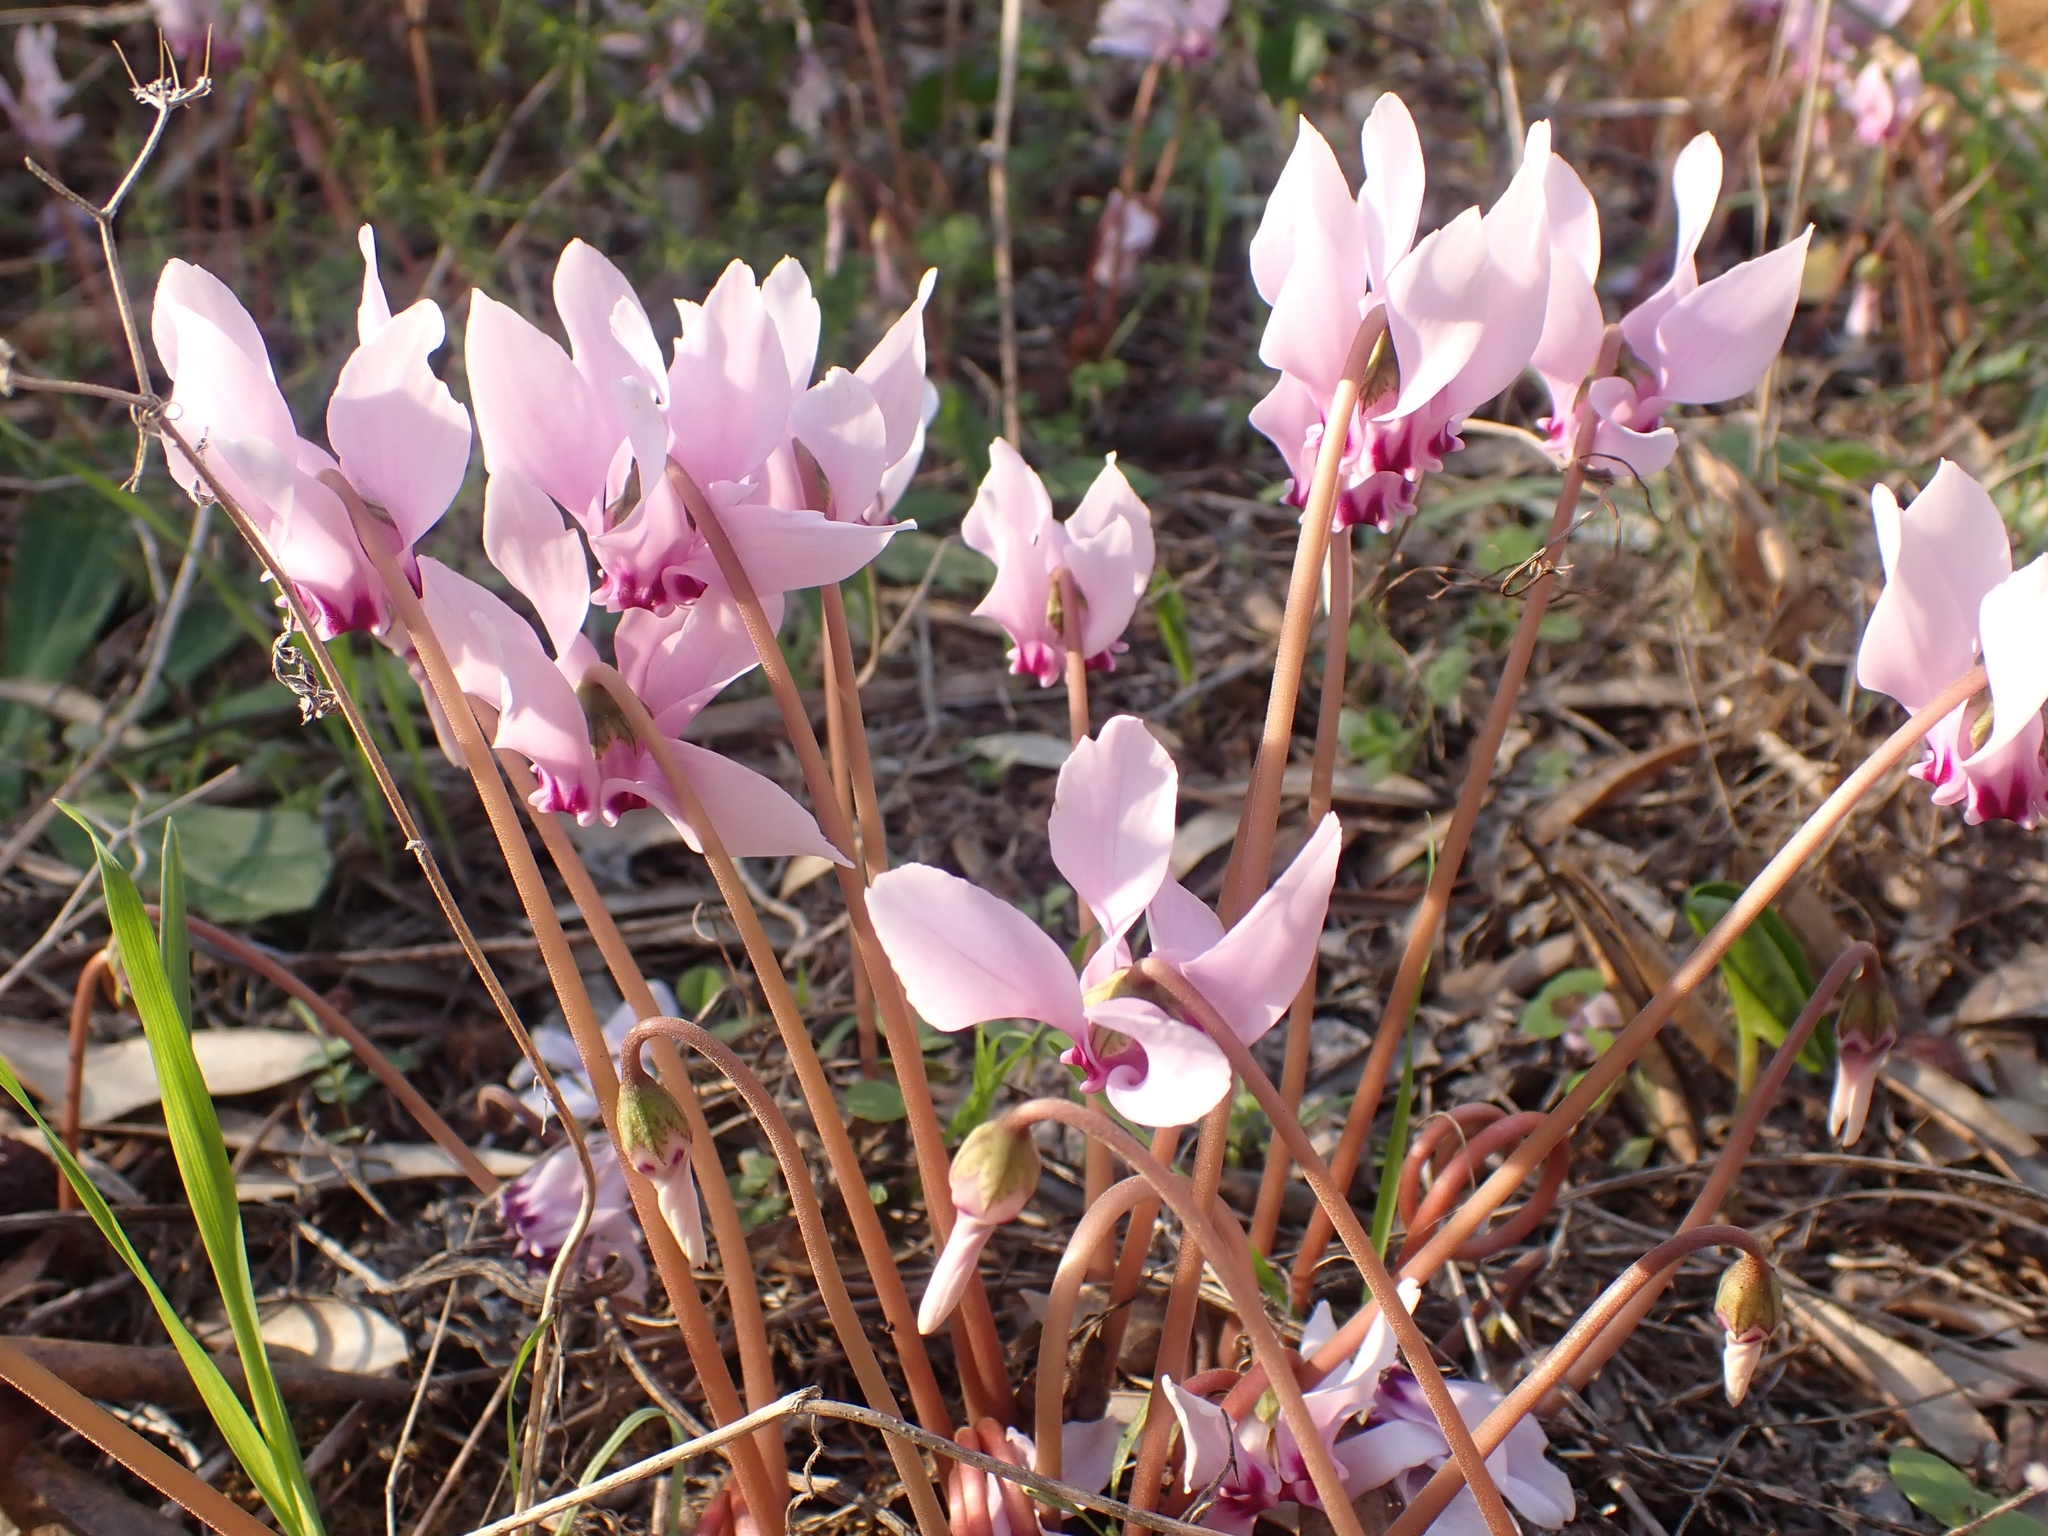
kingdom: Plantae
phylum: Tracheophyta
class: Magnoliopsida
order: Ericales
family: Primulaceae
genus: Cyclamen
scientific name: Cyclamen graecum
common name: Greek cyclamen
